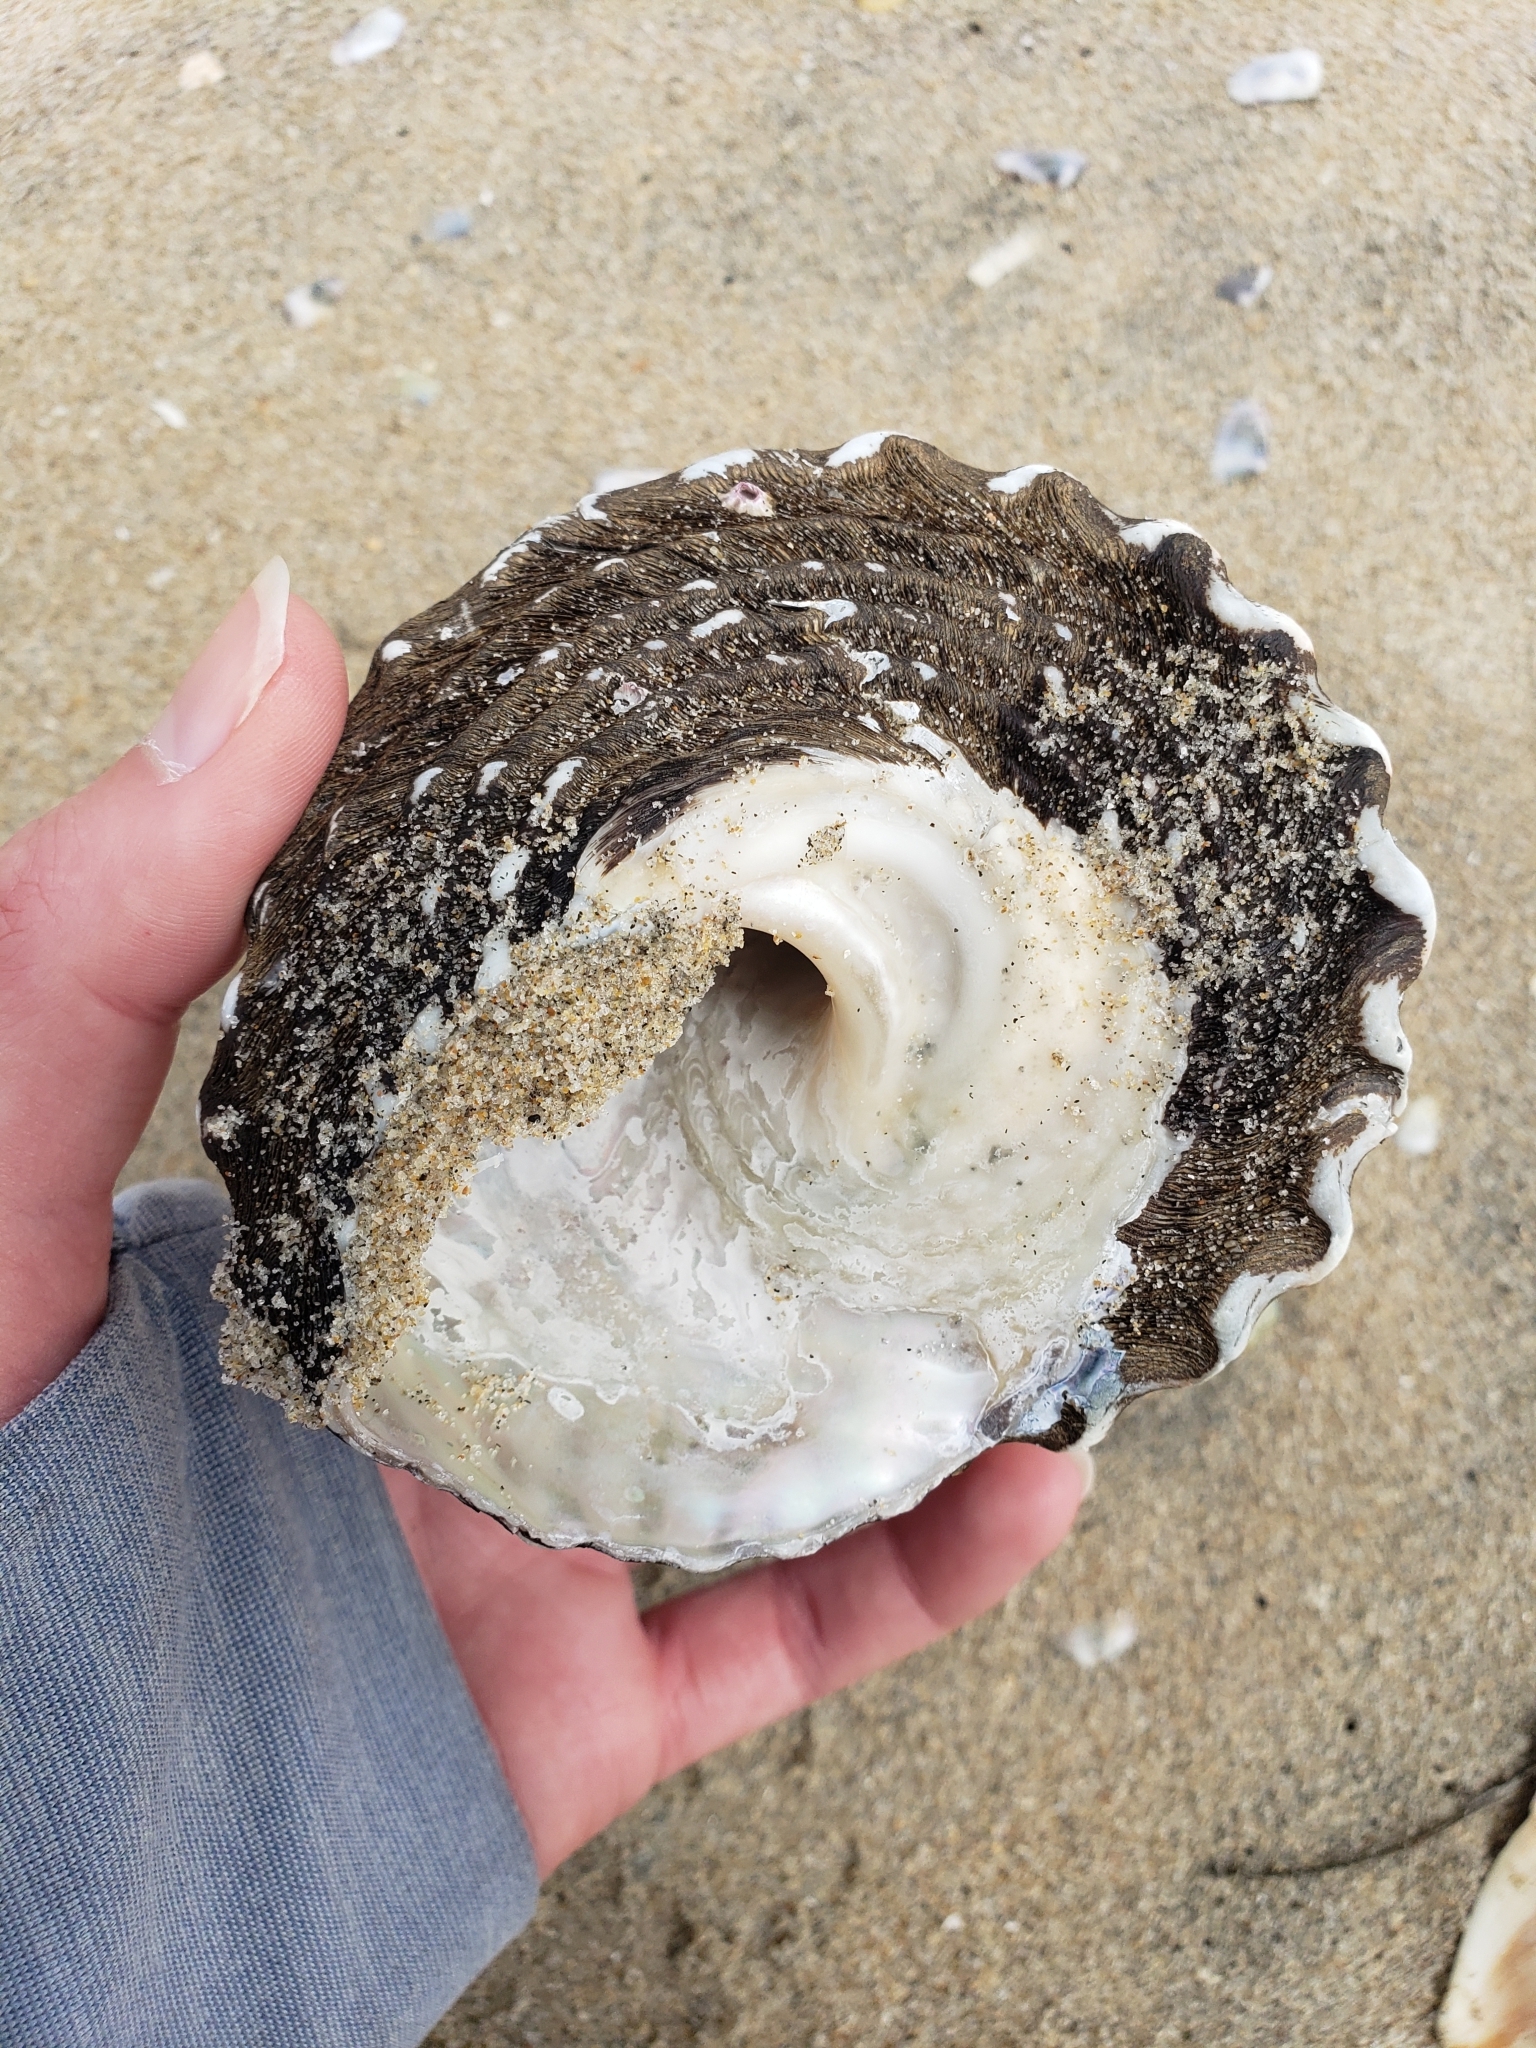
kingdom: Animalia
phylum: Mollusca
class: Gastropoda
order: Trochida
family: Turbinidae
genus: Megastraea
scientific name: Megastraea undosa
